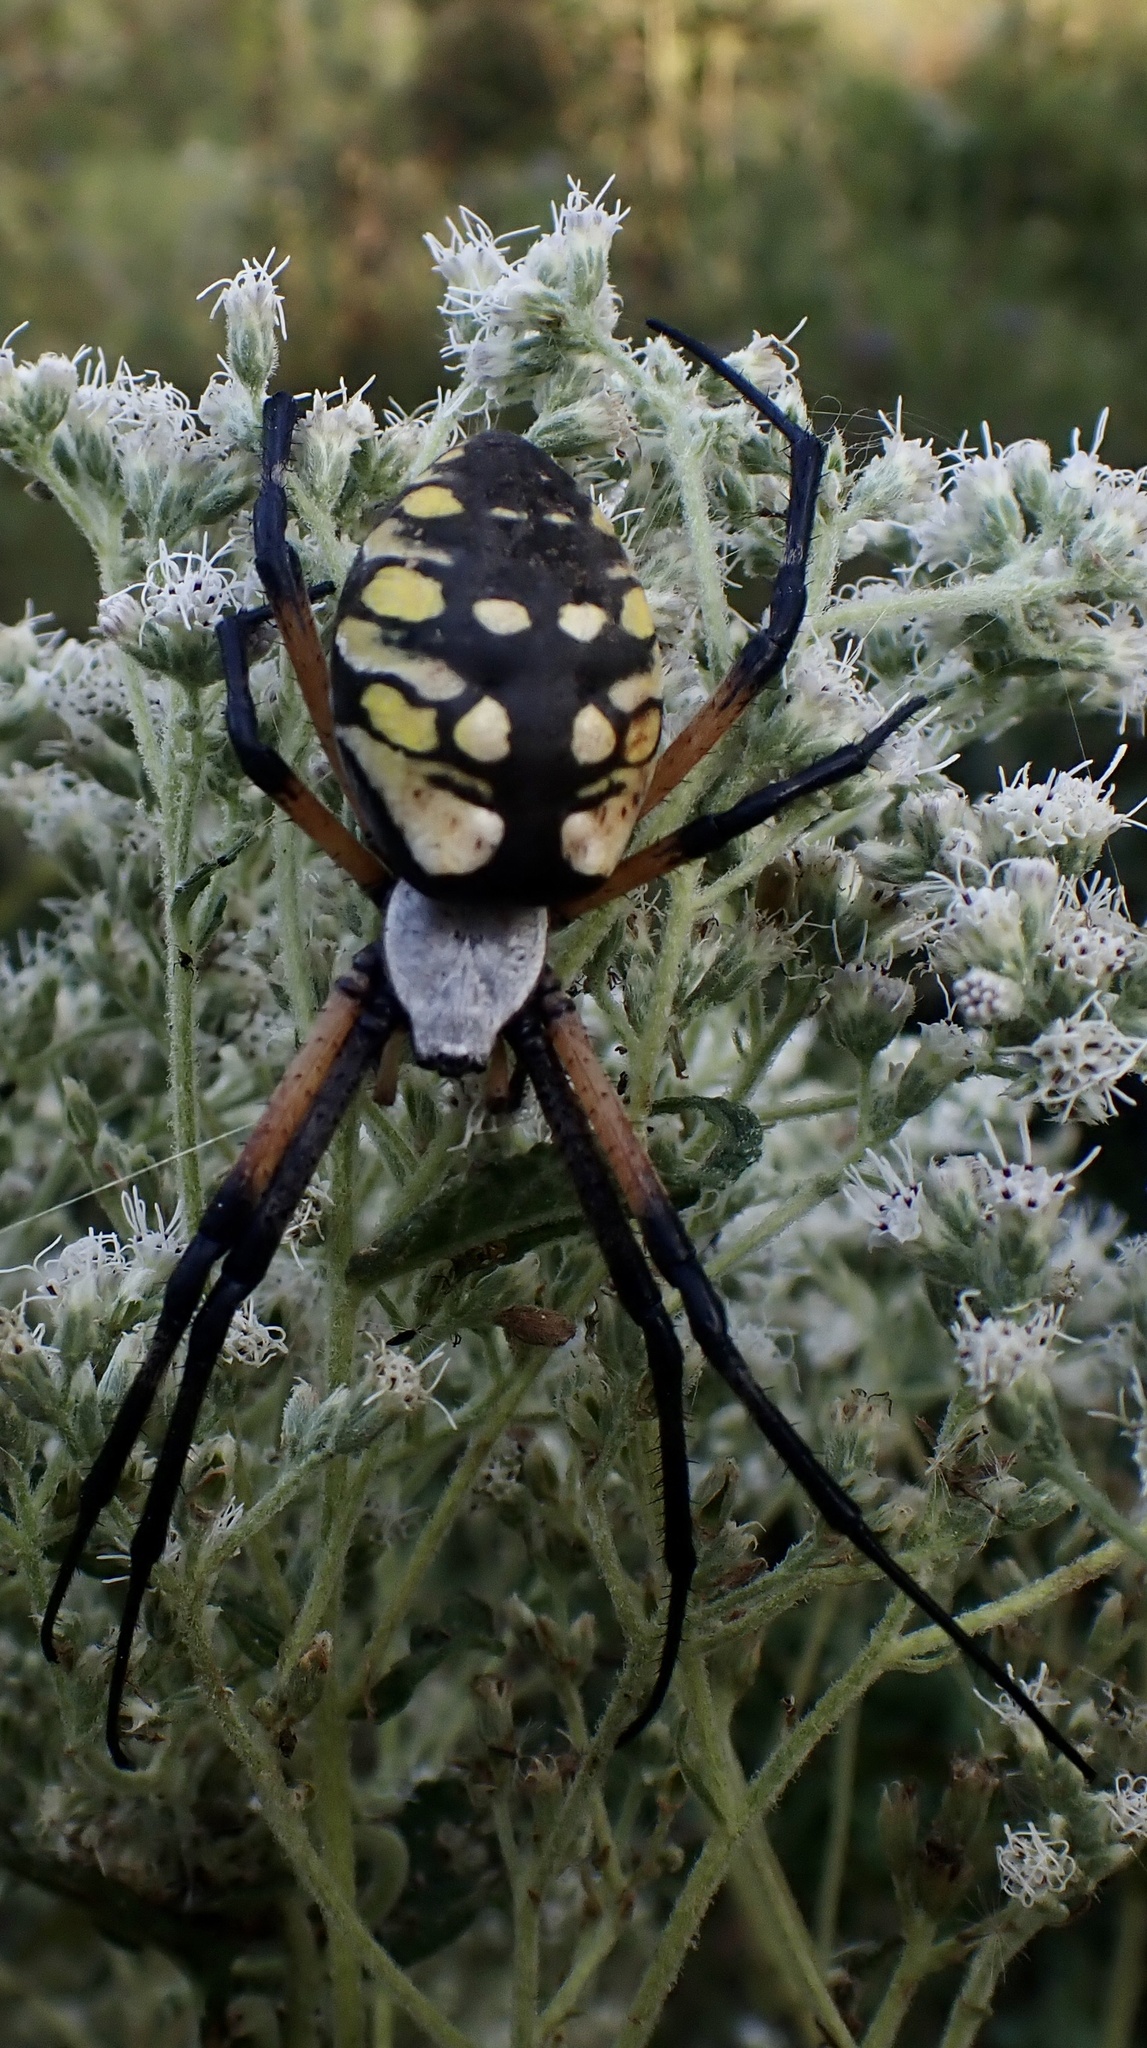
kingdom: Animalia
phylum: Arthropoda
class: Arachnida
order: Araneae
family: Araneidae
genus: Argiope
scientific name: Argiope aurantia
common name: Orb weavers
